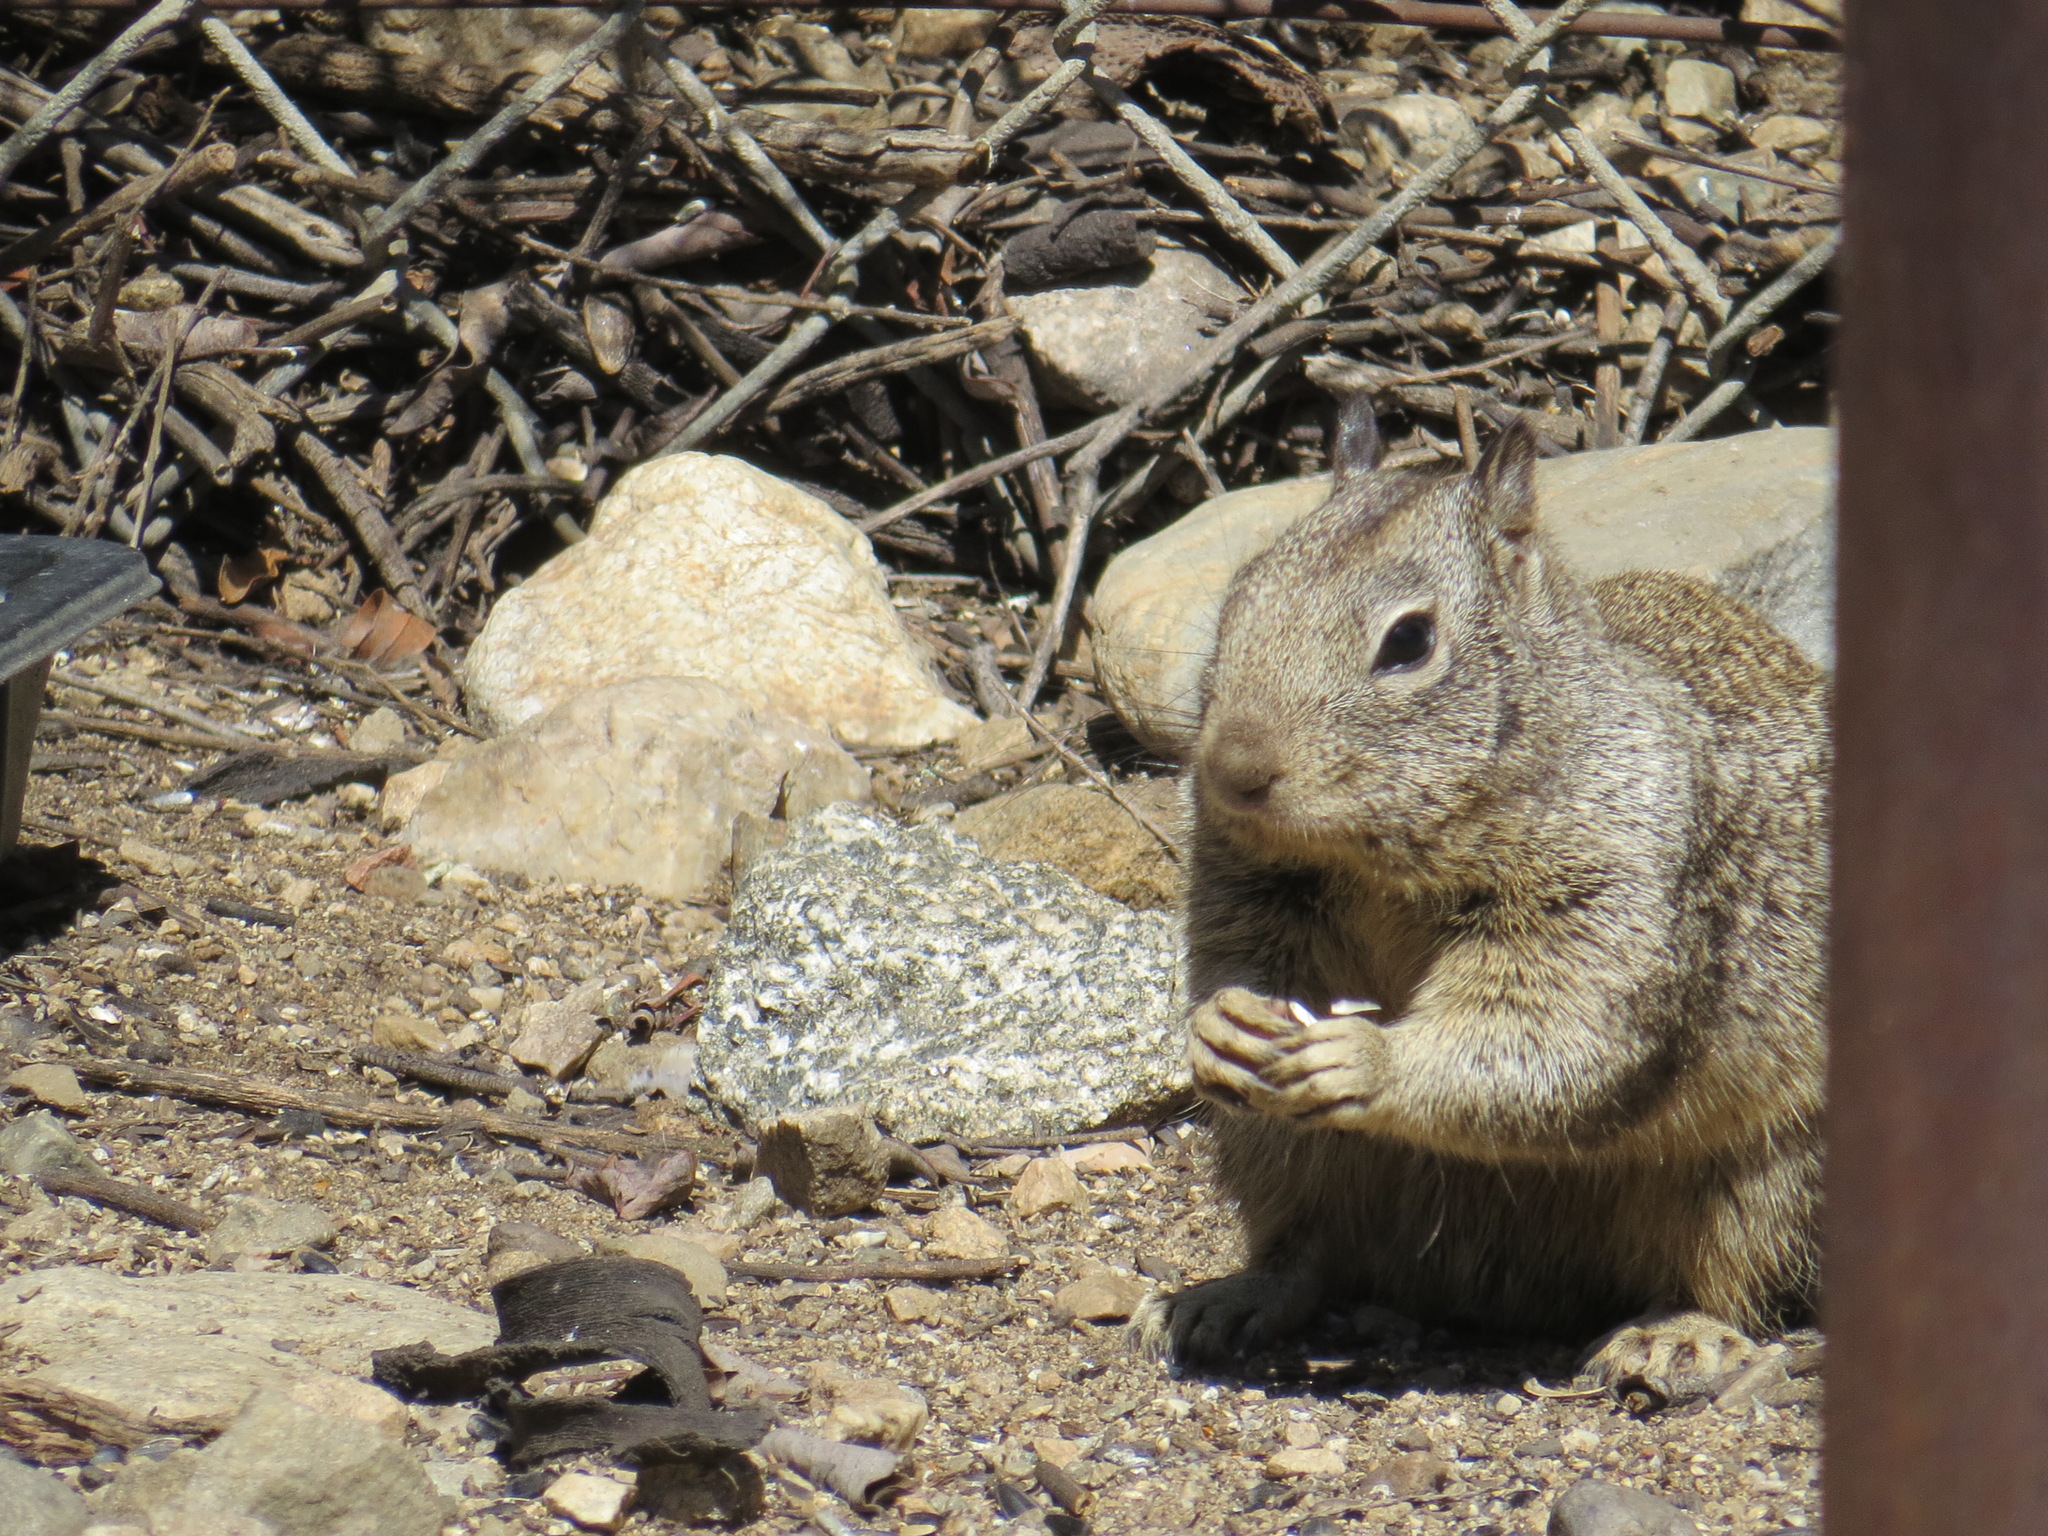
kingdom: Animalia
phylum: Chordata
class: Mammalia
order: Rodentia
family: Sciuridae
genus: Otospermophilus
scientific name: Otospermophilus beecheyi
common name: California ground squirrel
